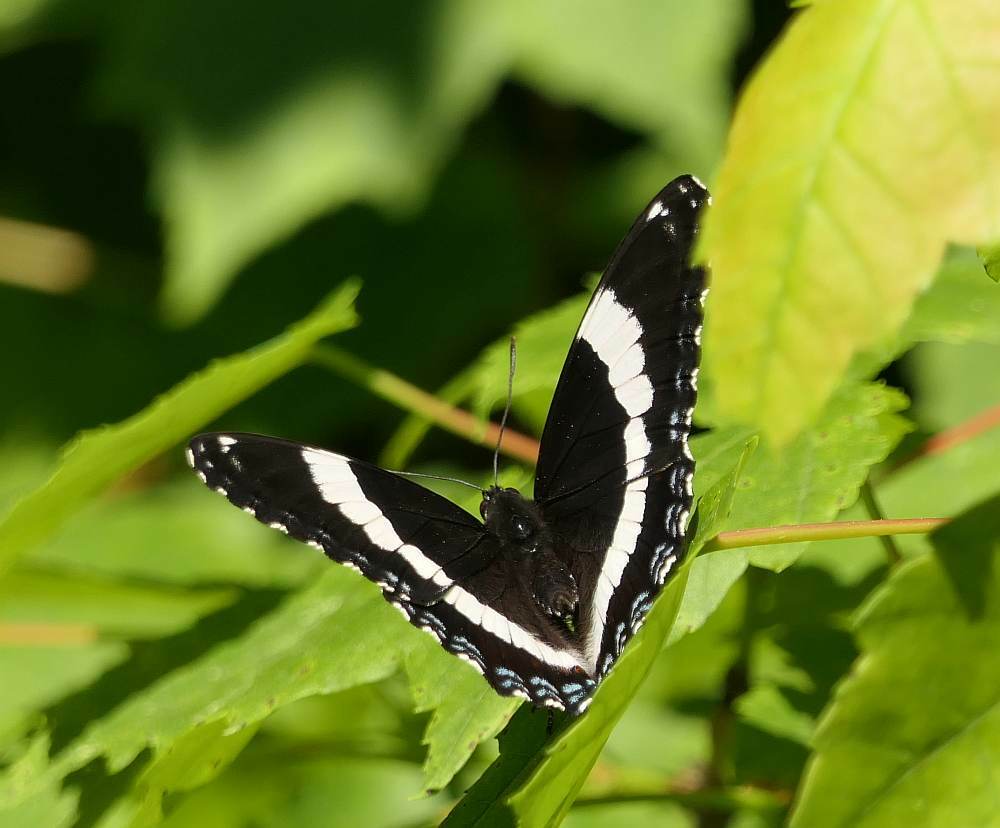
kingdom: Animalia
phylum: Arthropoda
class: Insecta
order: Lepidoptera
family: Nymphalidae
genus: Limenitis
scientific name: Limenitis arthemis
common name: Red-spotted admiral
